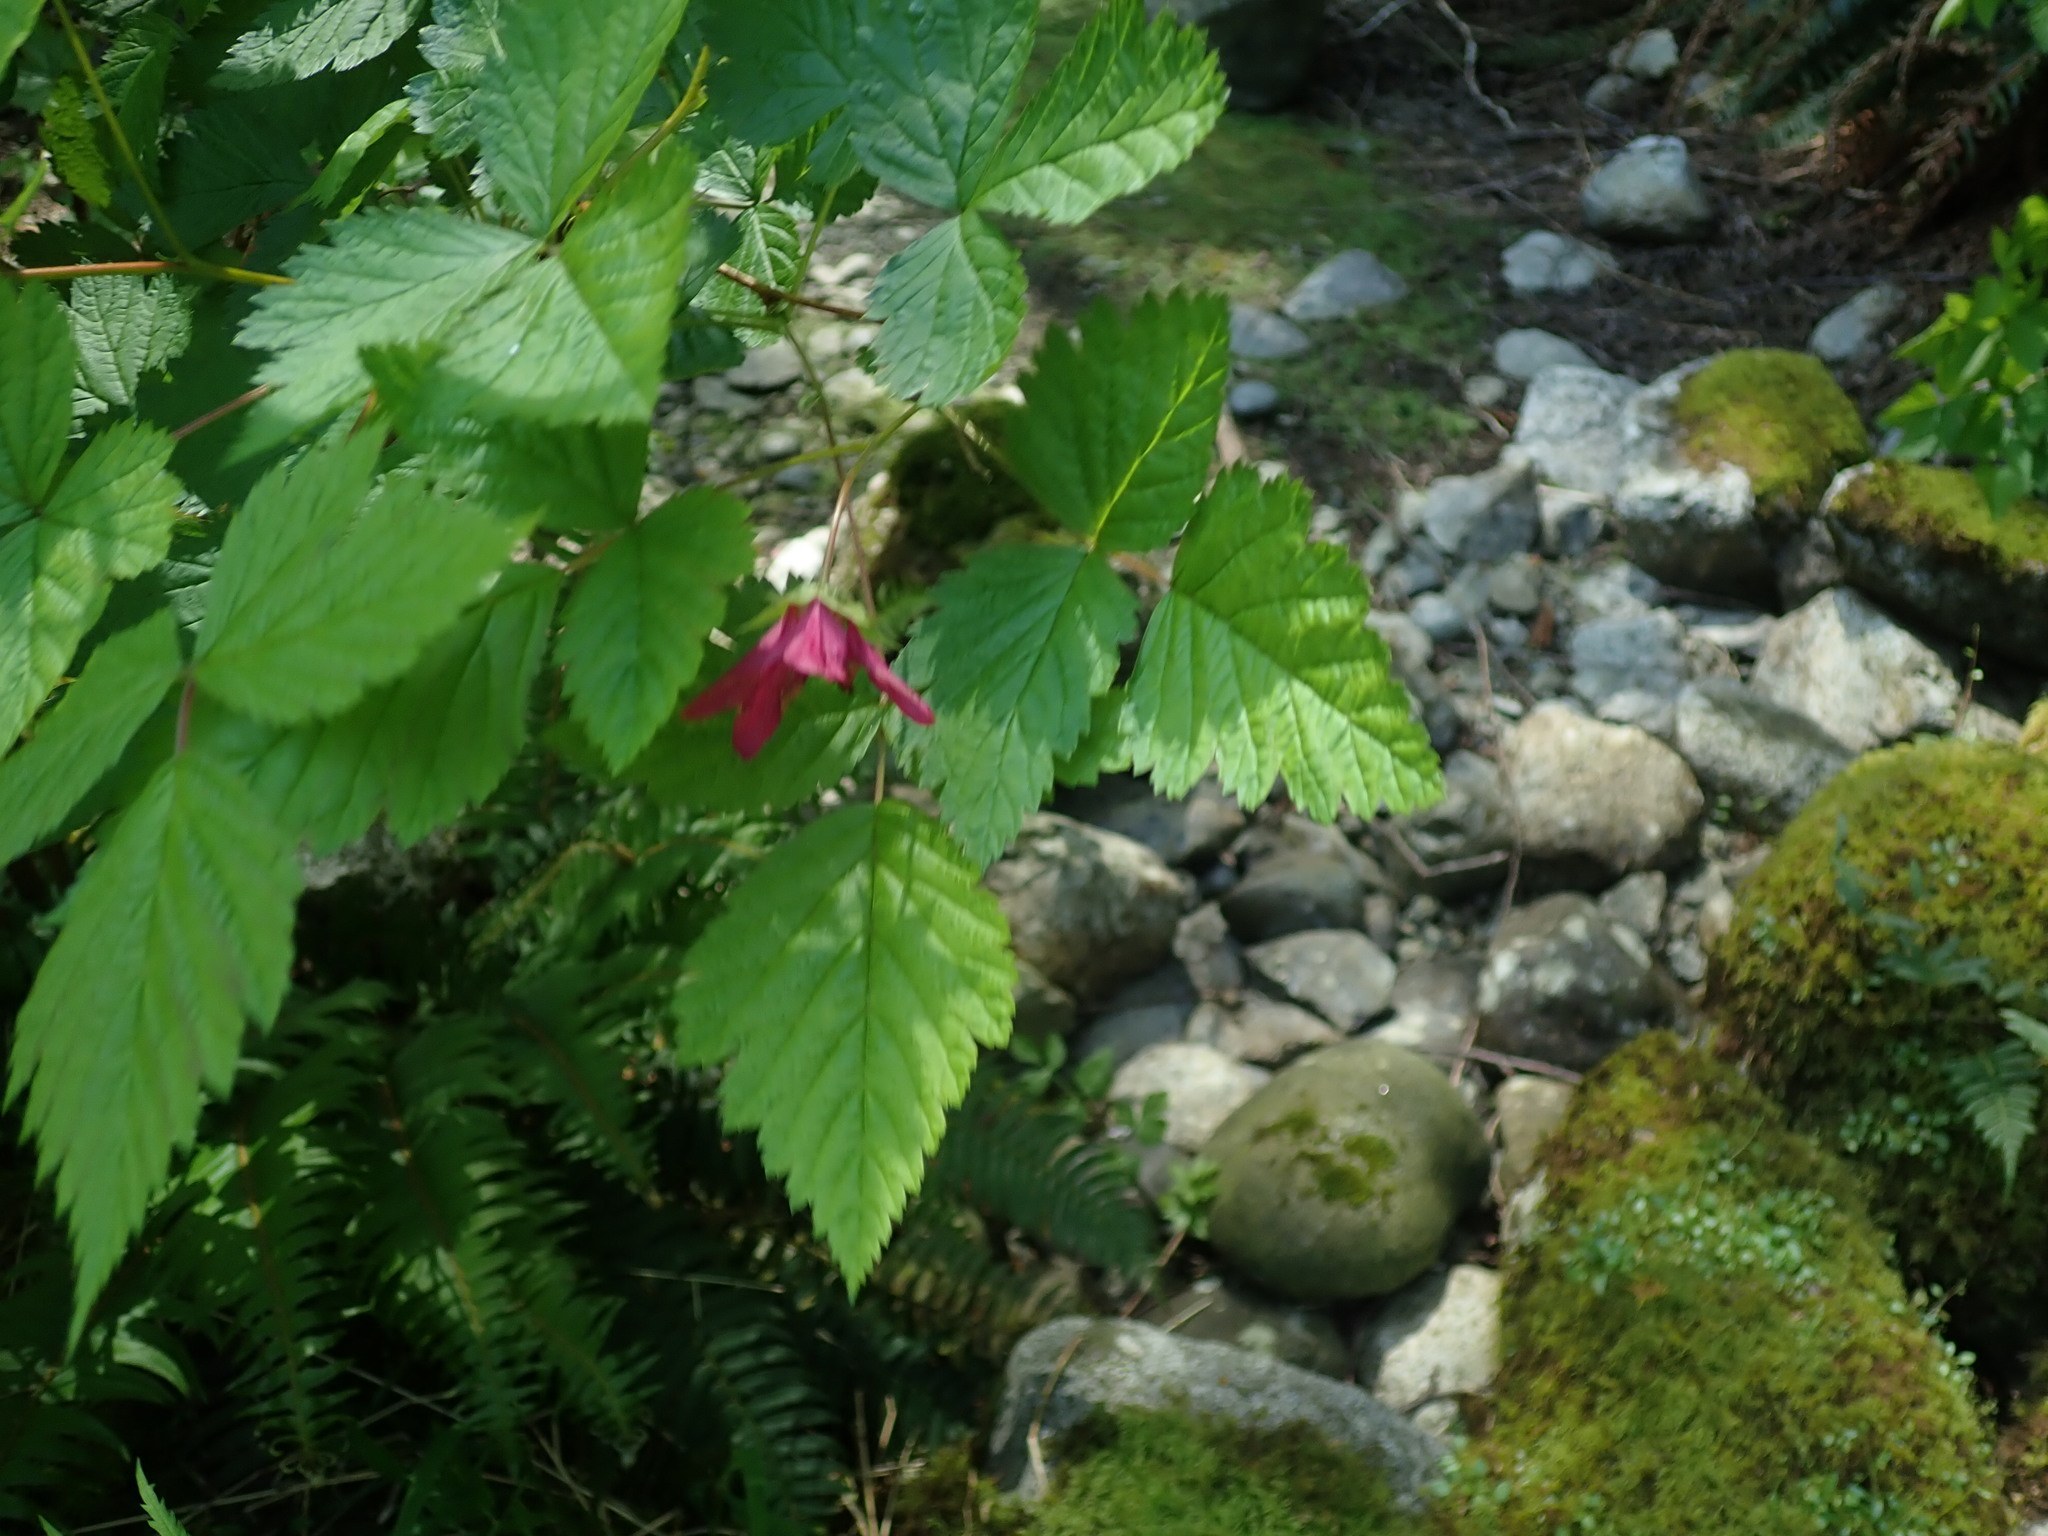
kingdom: Plantae
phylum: Tracheophyta
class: Magnoliopsida
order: Rosales
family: Rosaceae
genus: Rubus
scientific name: Rubus spectabilis
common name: Salmonberry
